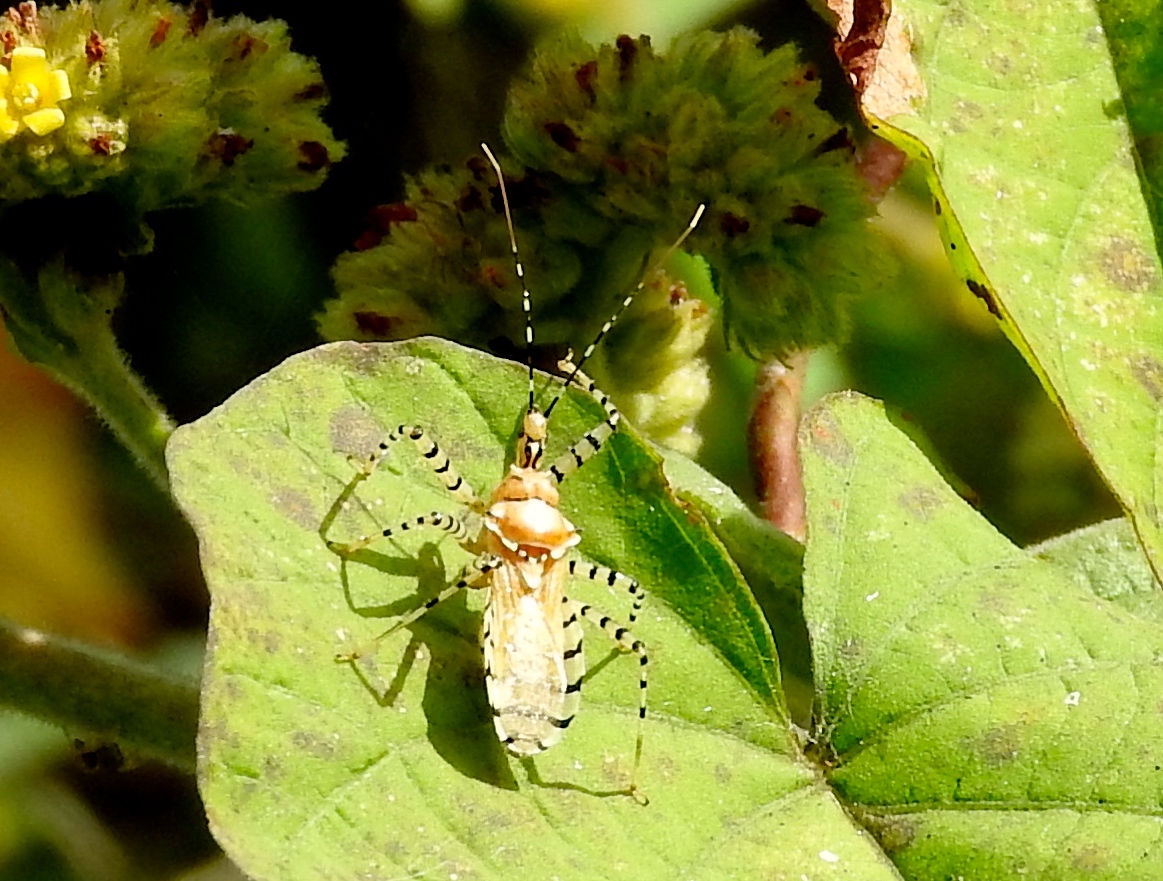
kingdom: Animalia
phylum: Arthropoda
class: Insecta
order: Hemiptera
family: Reduviidae
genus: Pselliopus
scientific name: Pselliopus
